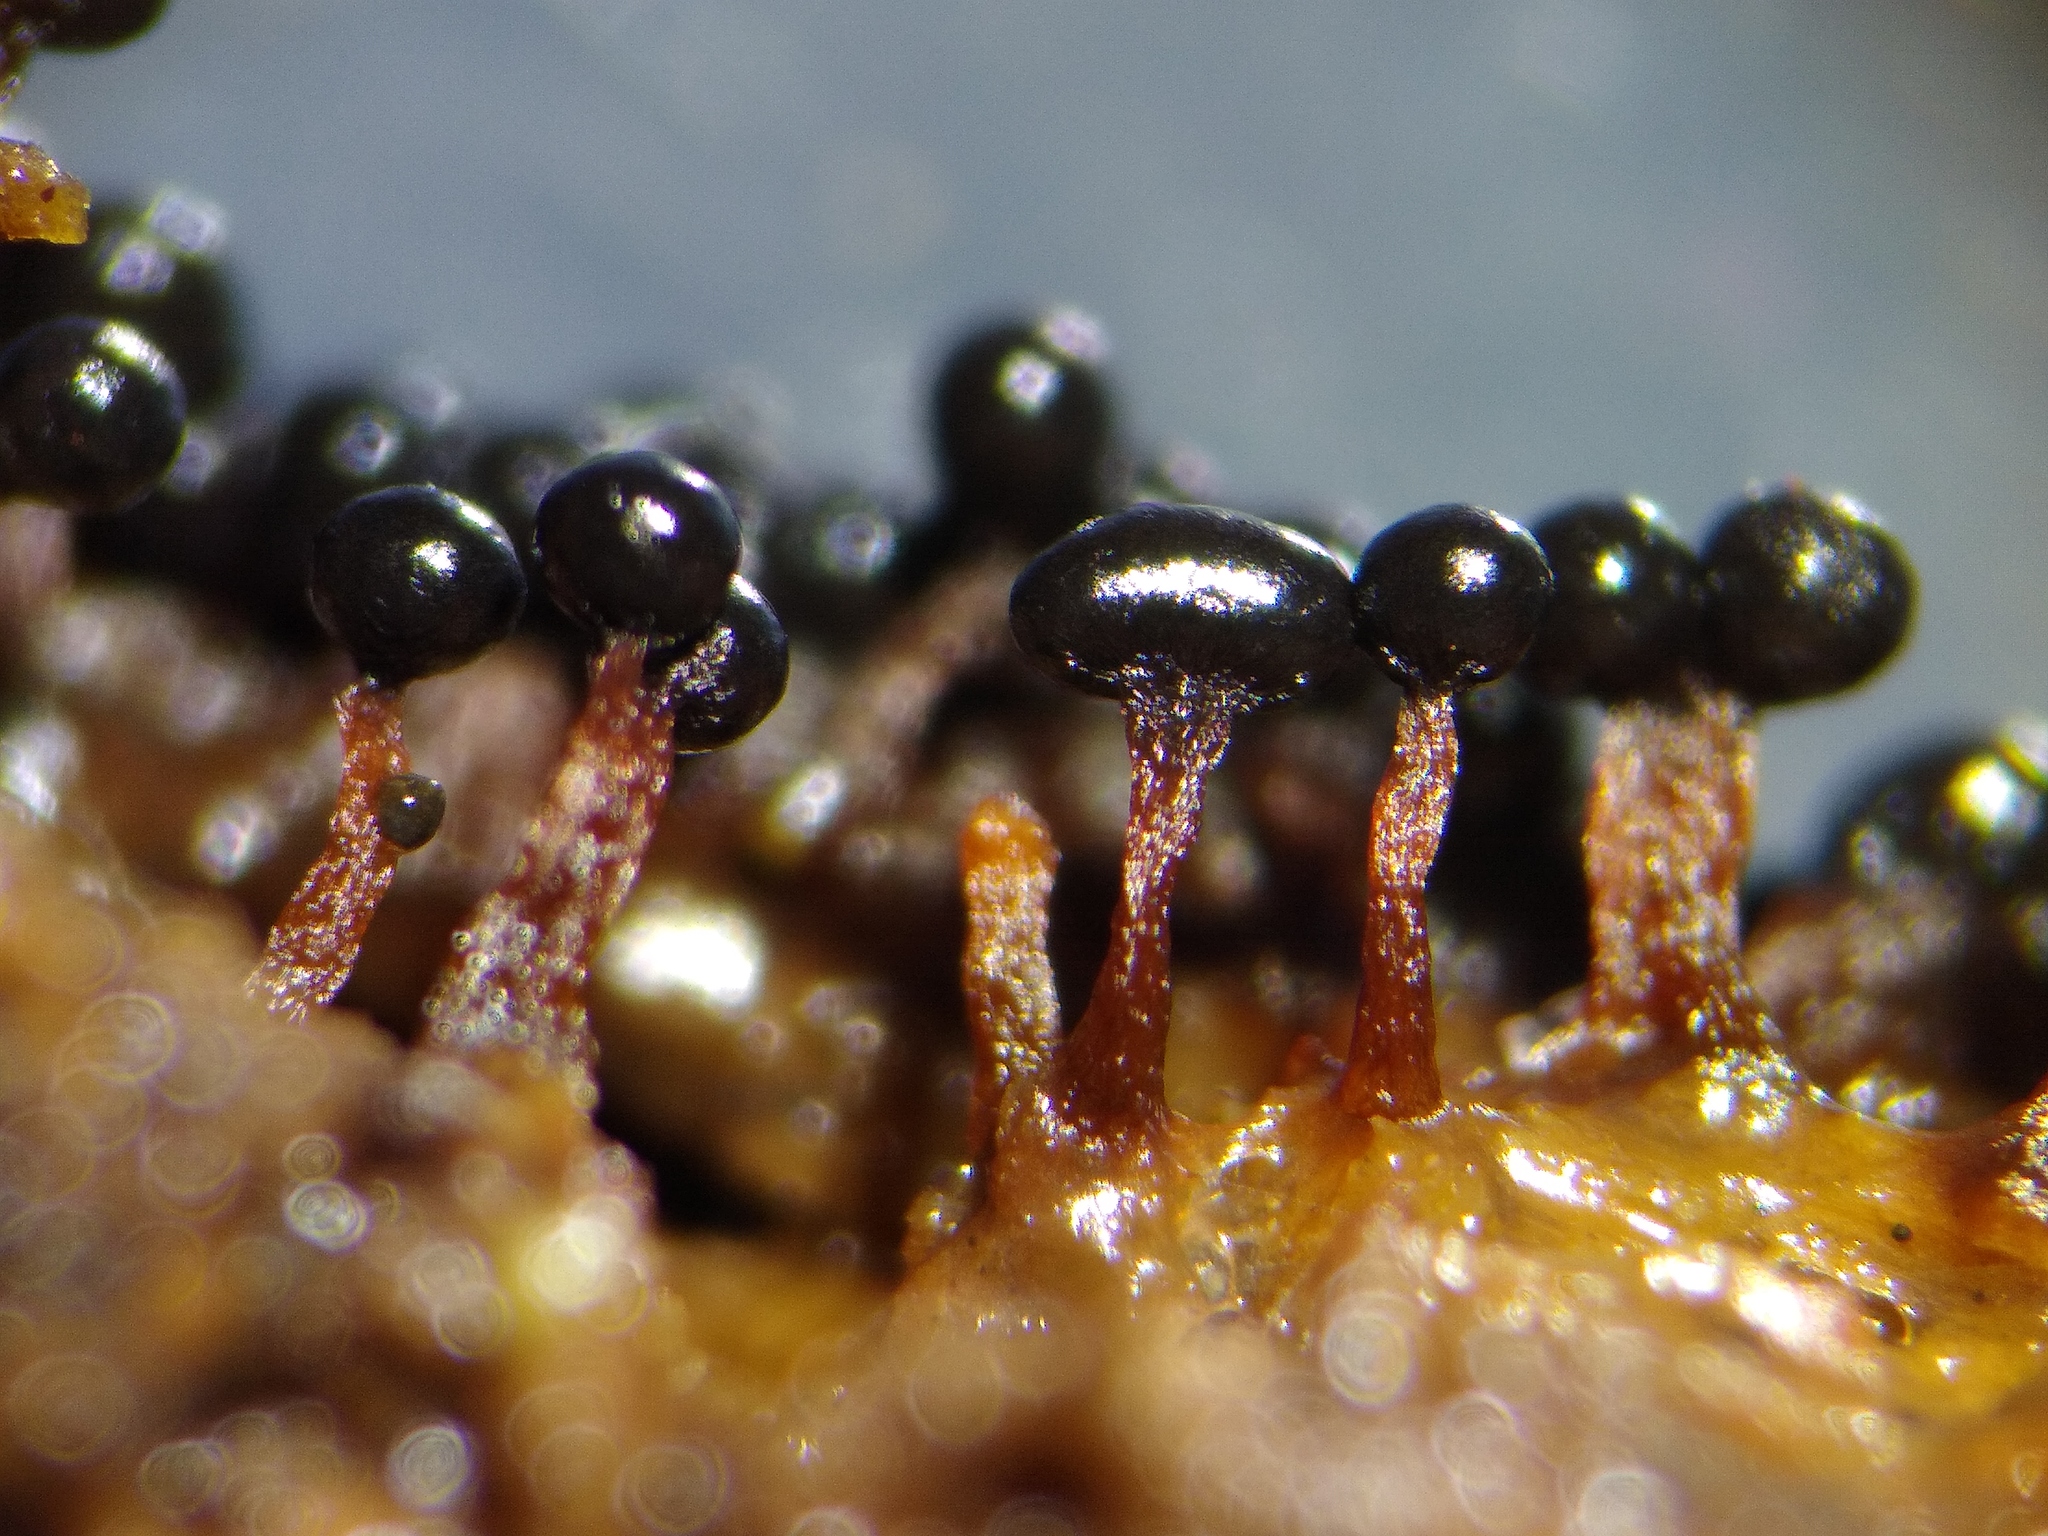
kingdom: Protozoa
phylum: Mycetozoa
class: Myxomycetes
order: Trichiales
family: Trichiaceae
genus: Metatrichia
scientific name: Metatrichia floriformis
